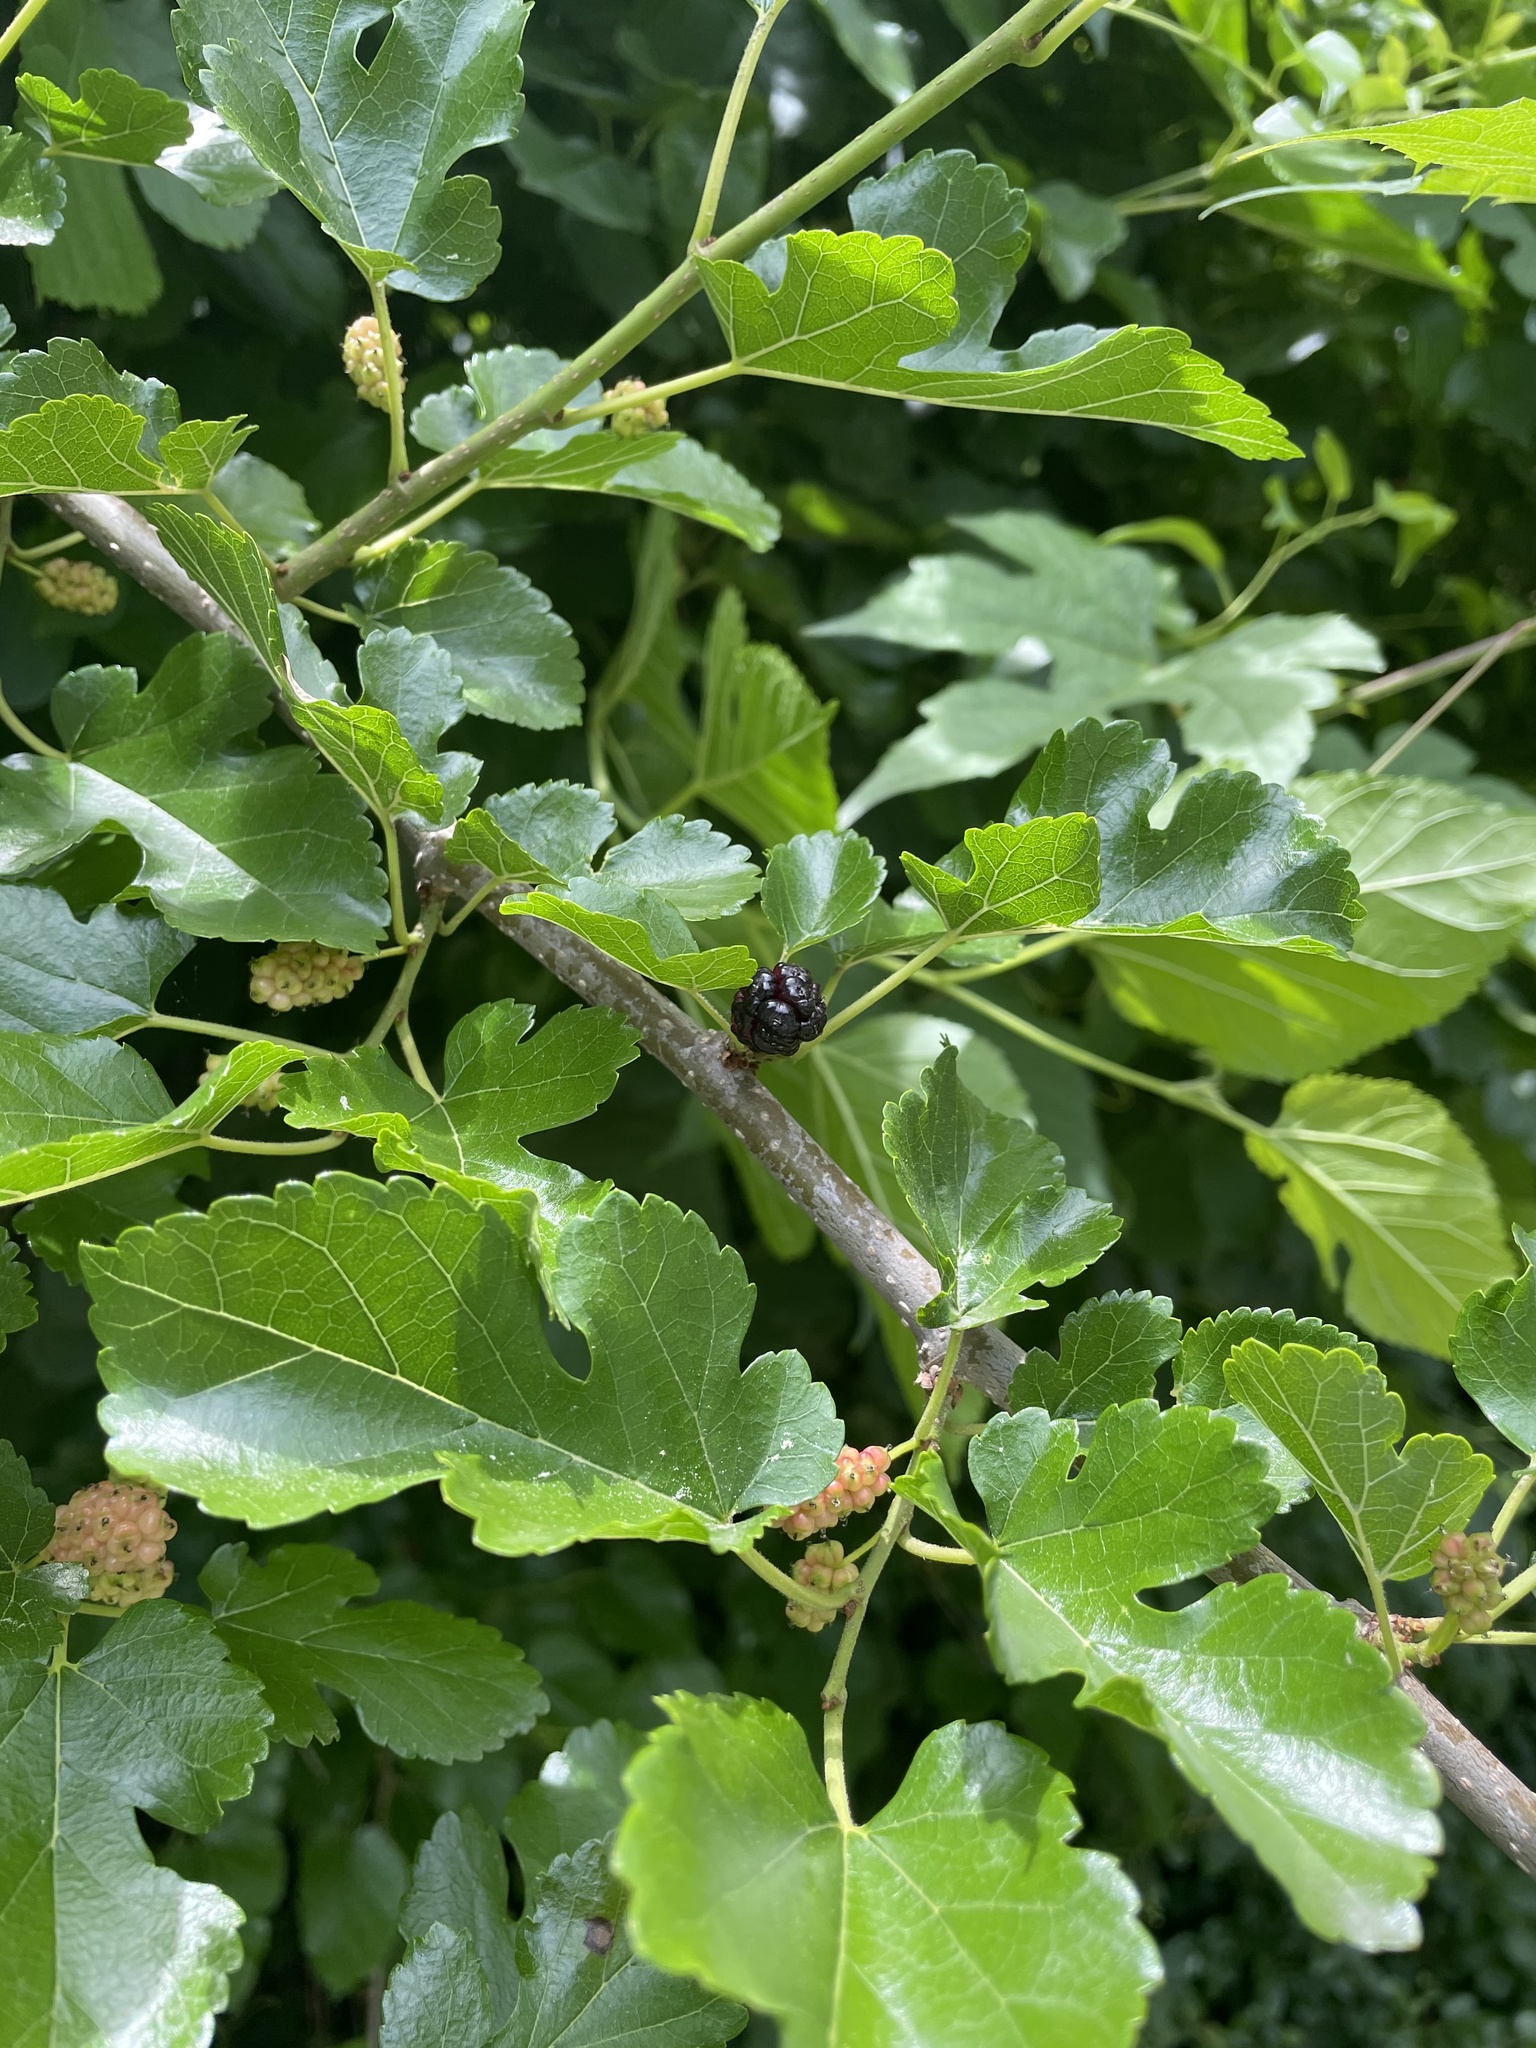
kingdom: Plantae
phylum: Tracheophyta
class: Magnoliopsida
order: Rosales
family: Moraceae
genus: Morus
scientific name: Morus alba
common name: White mulberry
